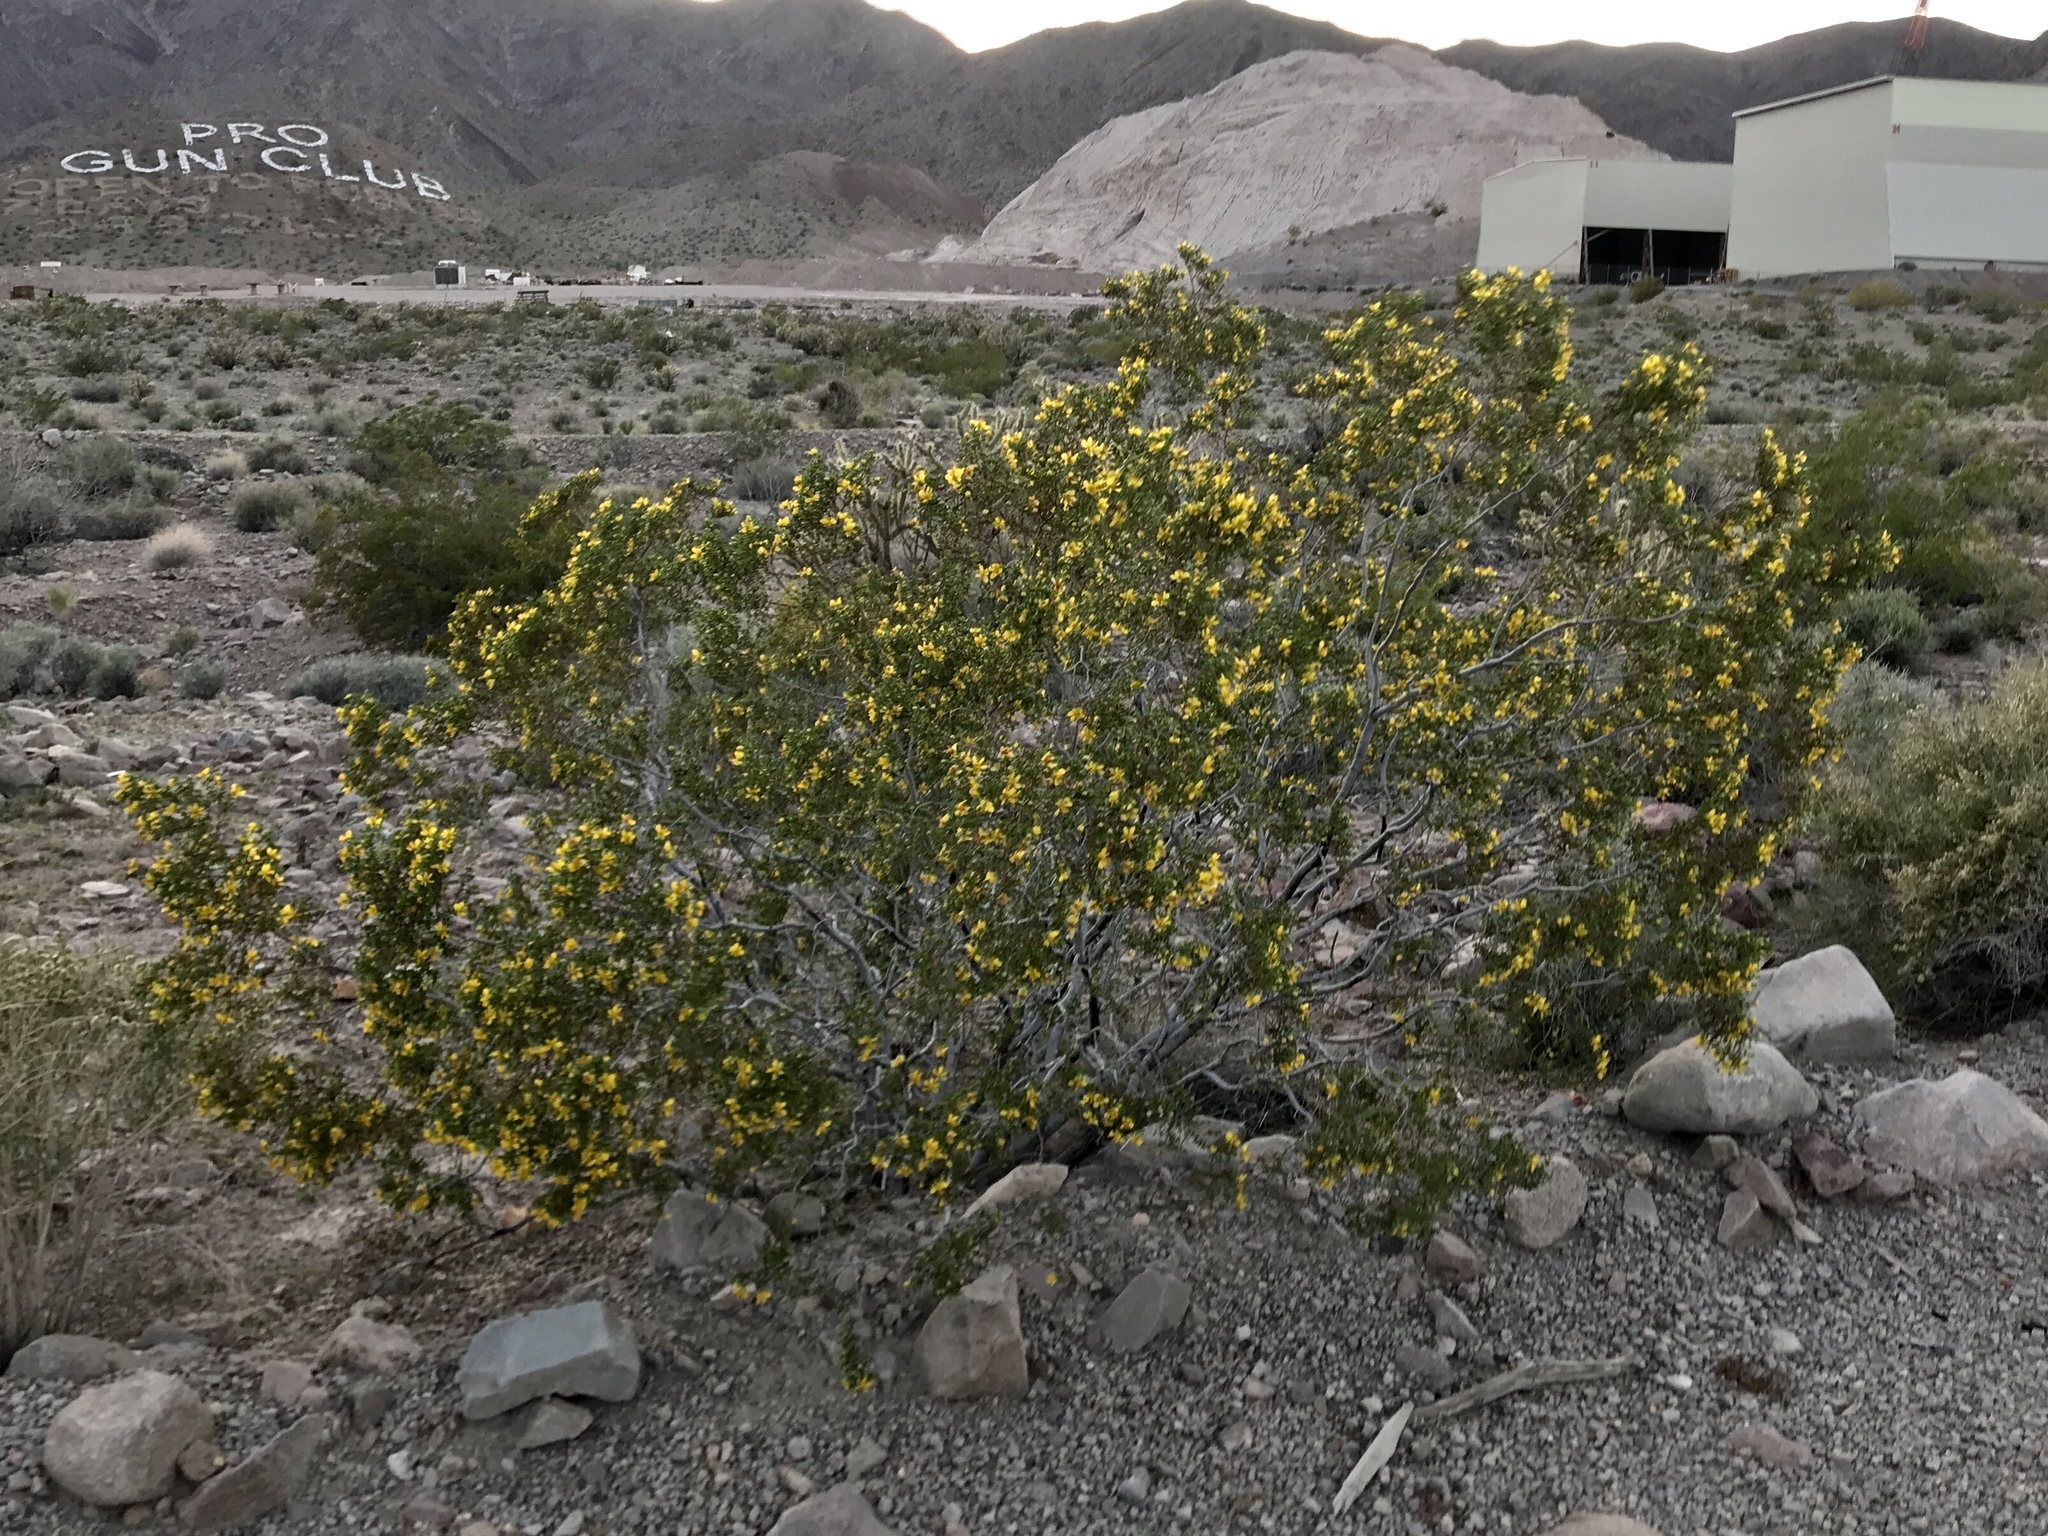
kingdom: Plantae
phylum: Tracheophyta
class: Magnoliopsida
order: Zygophyllales
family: Zygophyllaceae
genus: Larrea
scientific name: Larrea tridentata
